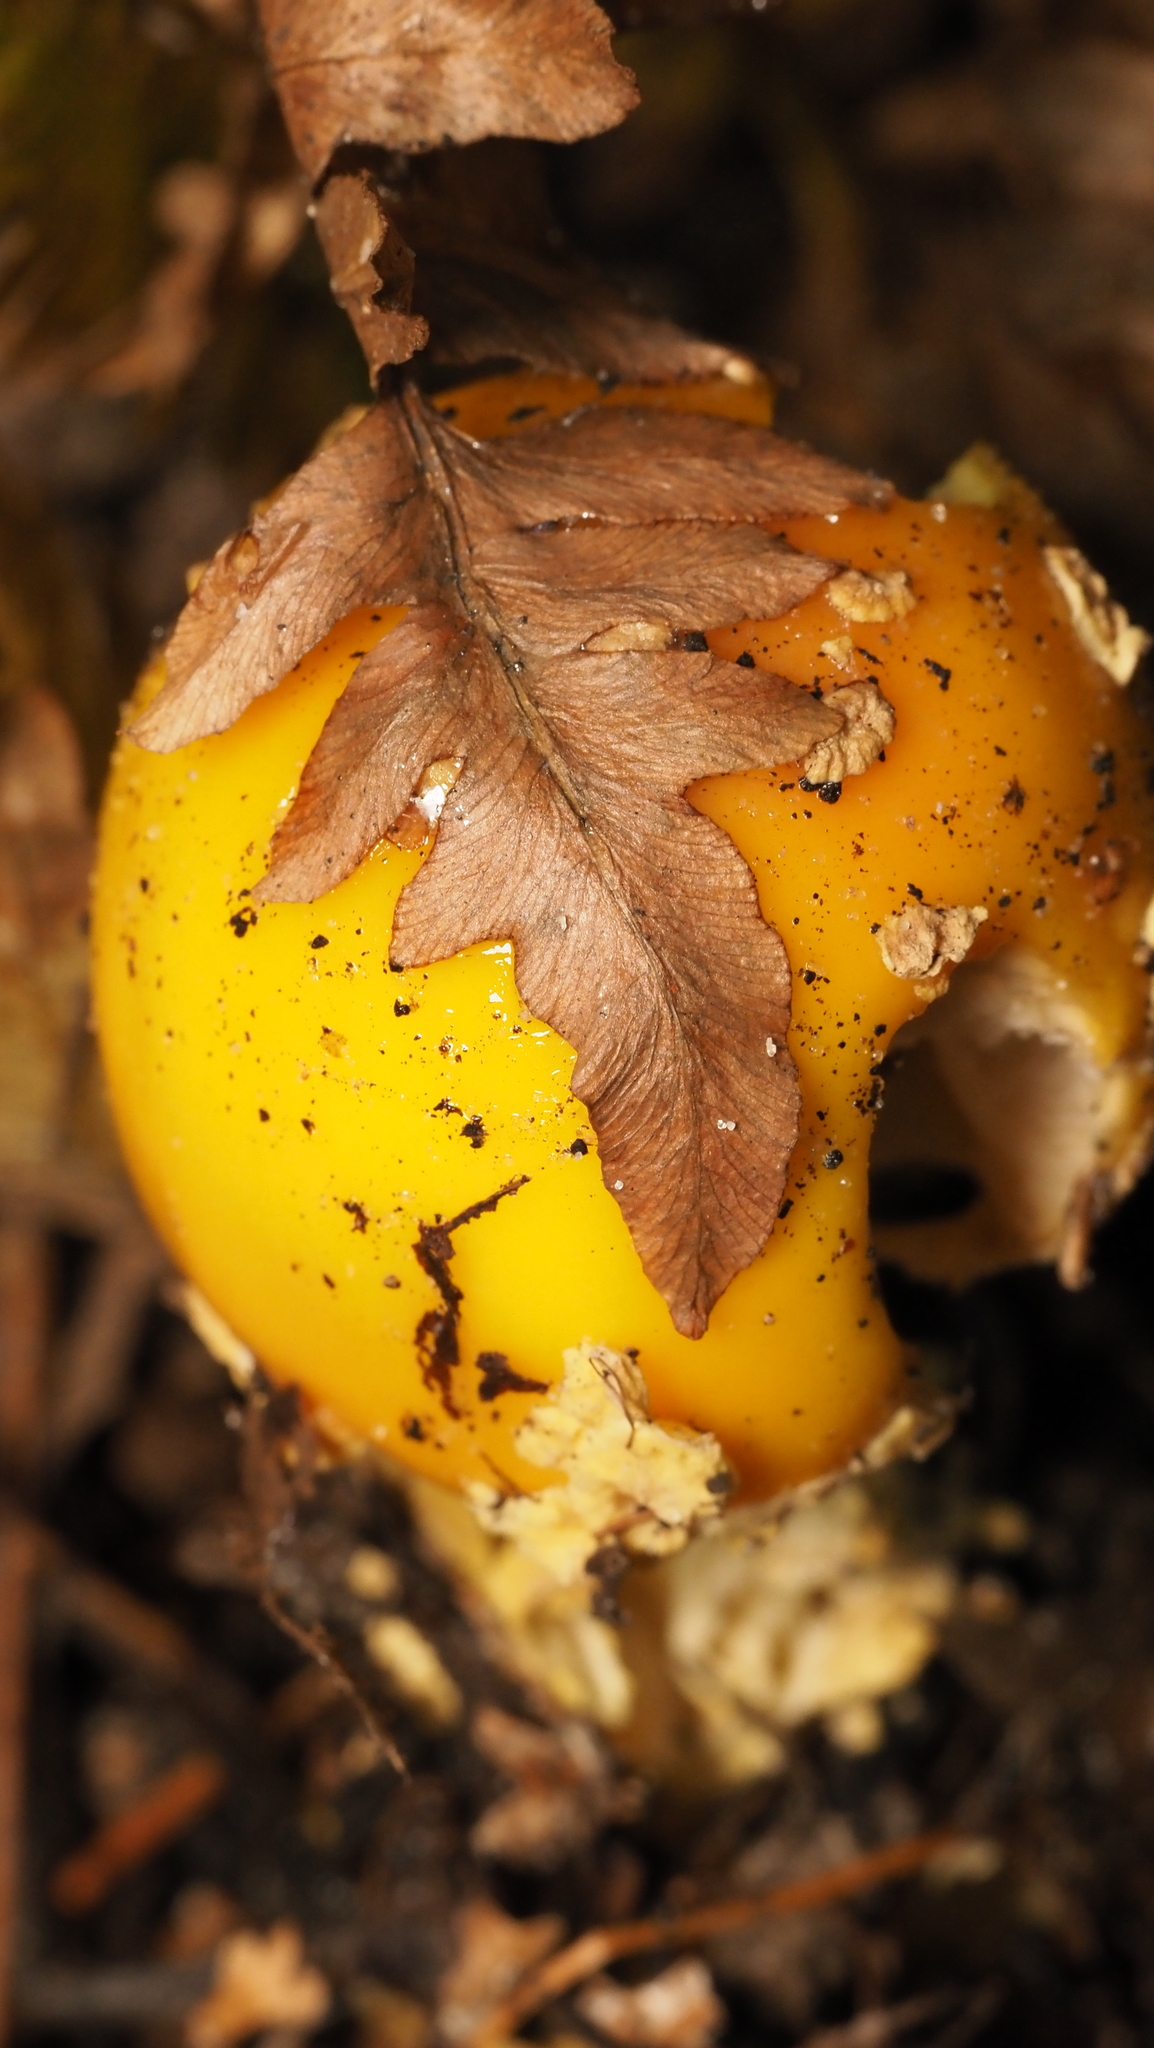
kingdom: Fungi
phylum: Basidiomycota
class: Agaricomycetes
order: Agaricales
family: Amanitaceae
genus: Amanita
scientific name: Amanita muscaria
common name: Fly agaric
